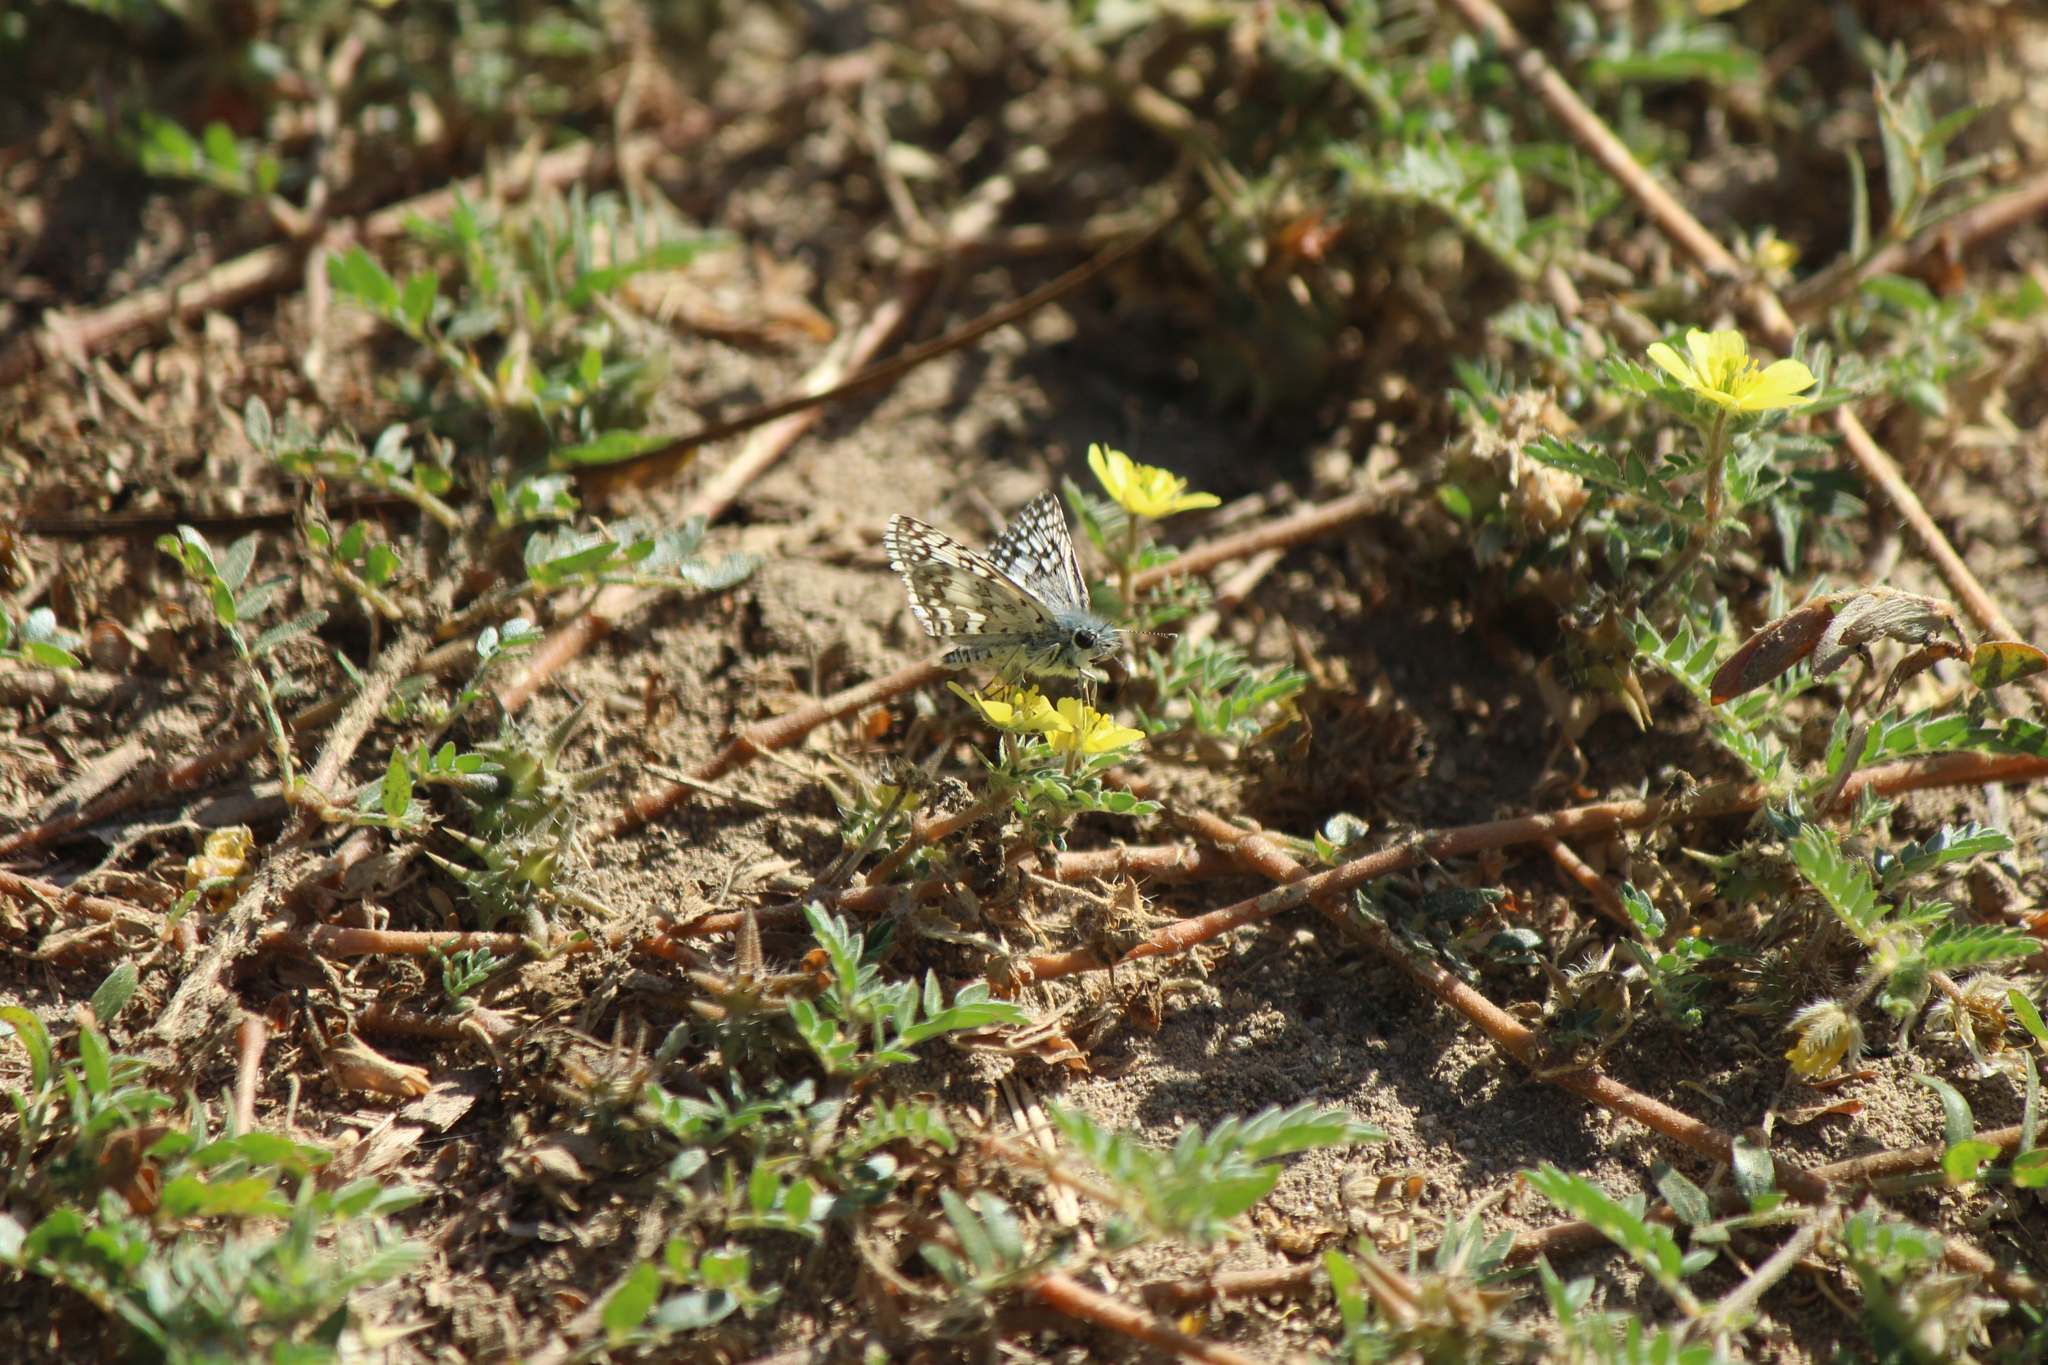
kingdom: Animalia
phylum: Arthropoda
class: Insecta
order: Lepidoptera
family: Hesperiidae
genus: Burnsius
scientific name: Burnsius albezens
